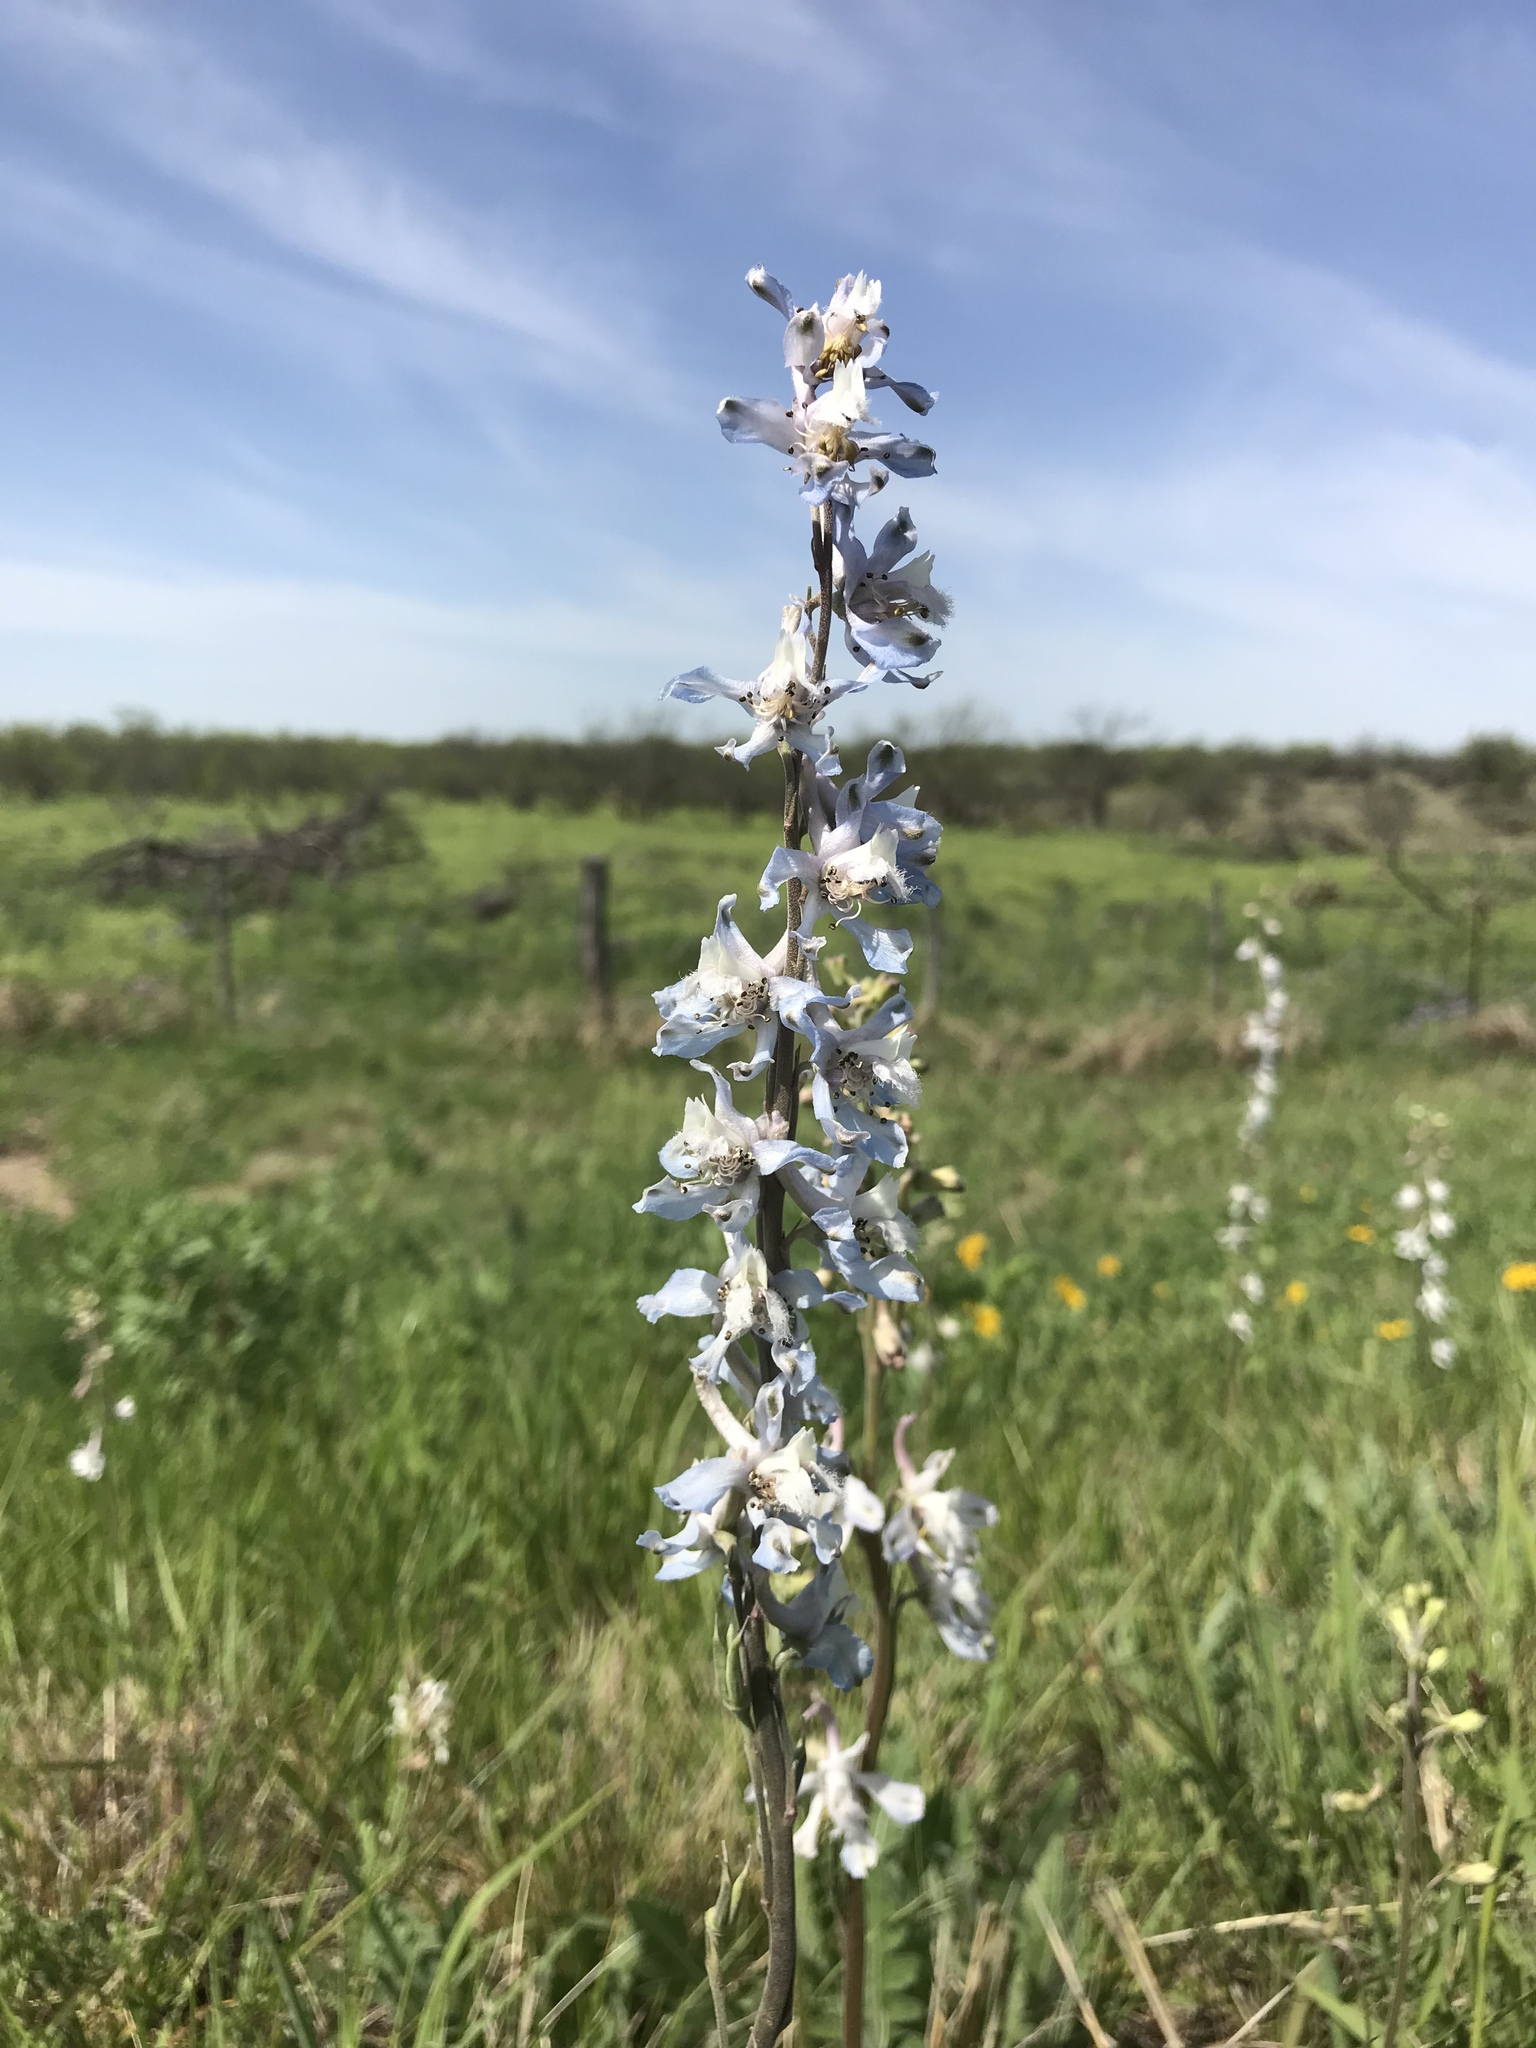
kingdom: Plantae
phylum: Tracheophyta
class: Magnoliopsida
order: Ranunculales
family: Ranunculaceae
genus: Delphinium
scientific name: Delphinium carolinianum
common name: Carolina larkspur
